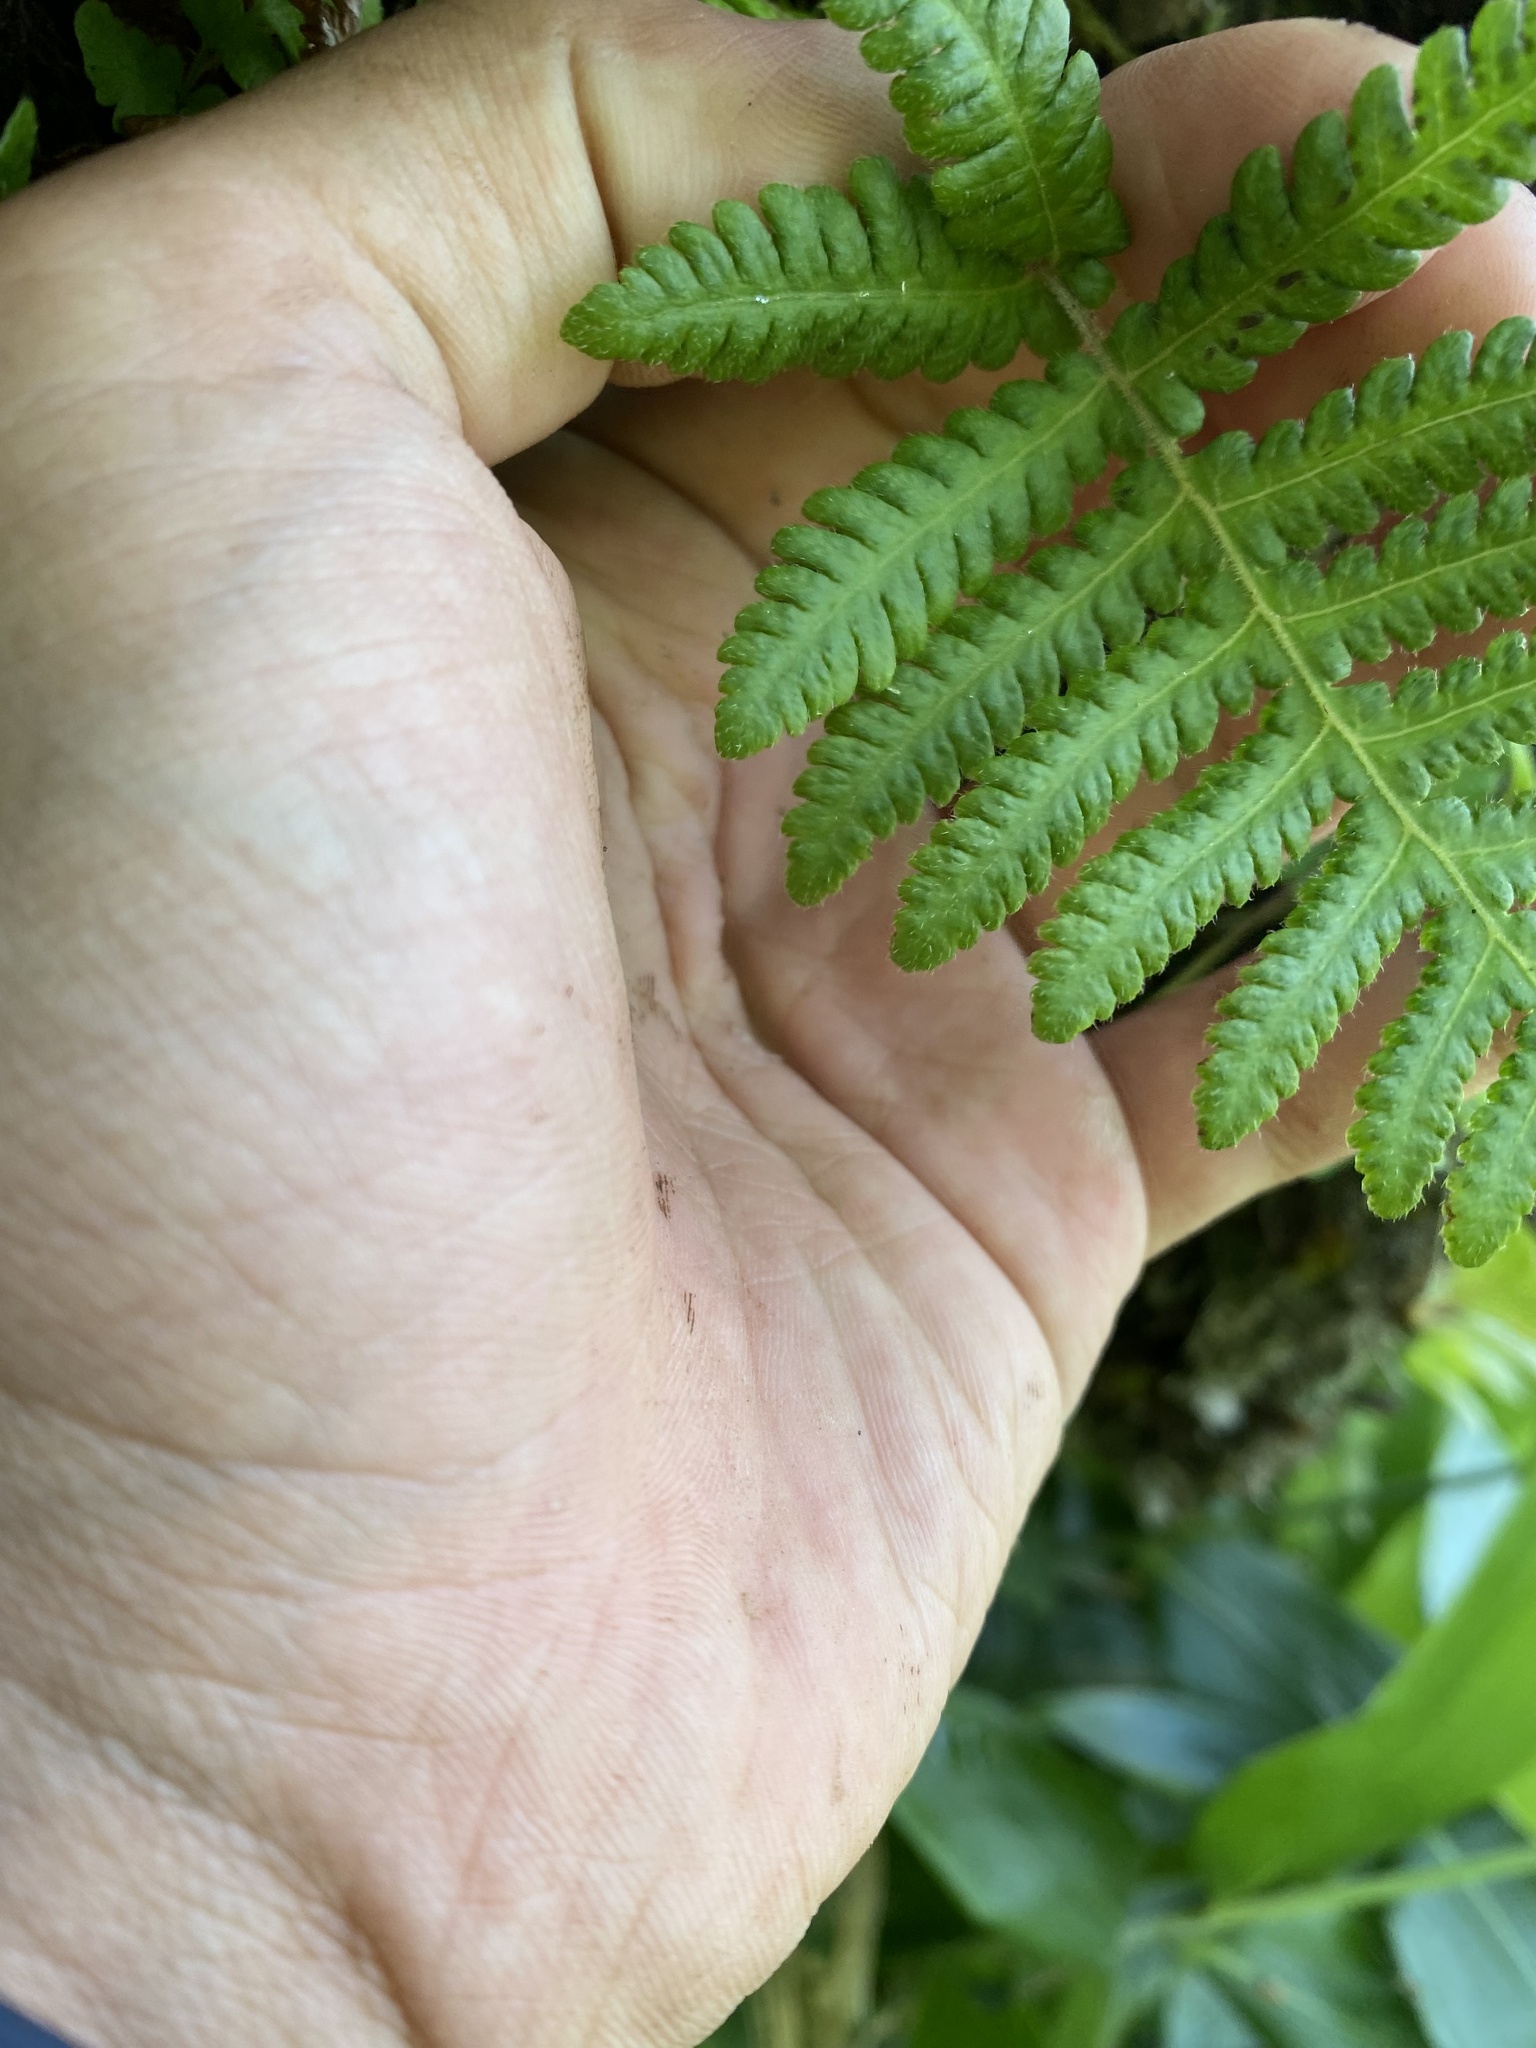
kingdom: Plantae
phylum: Tracheophyta
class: Polypodiopsida
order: Polypodiales
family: Thelypteridaceae
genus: Phegopteris
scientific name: Phegopteris connectilis
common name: Beech fern
